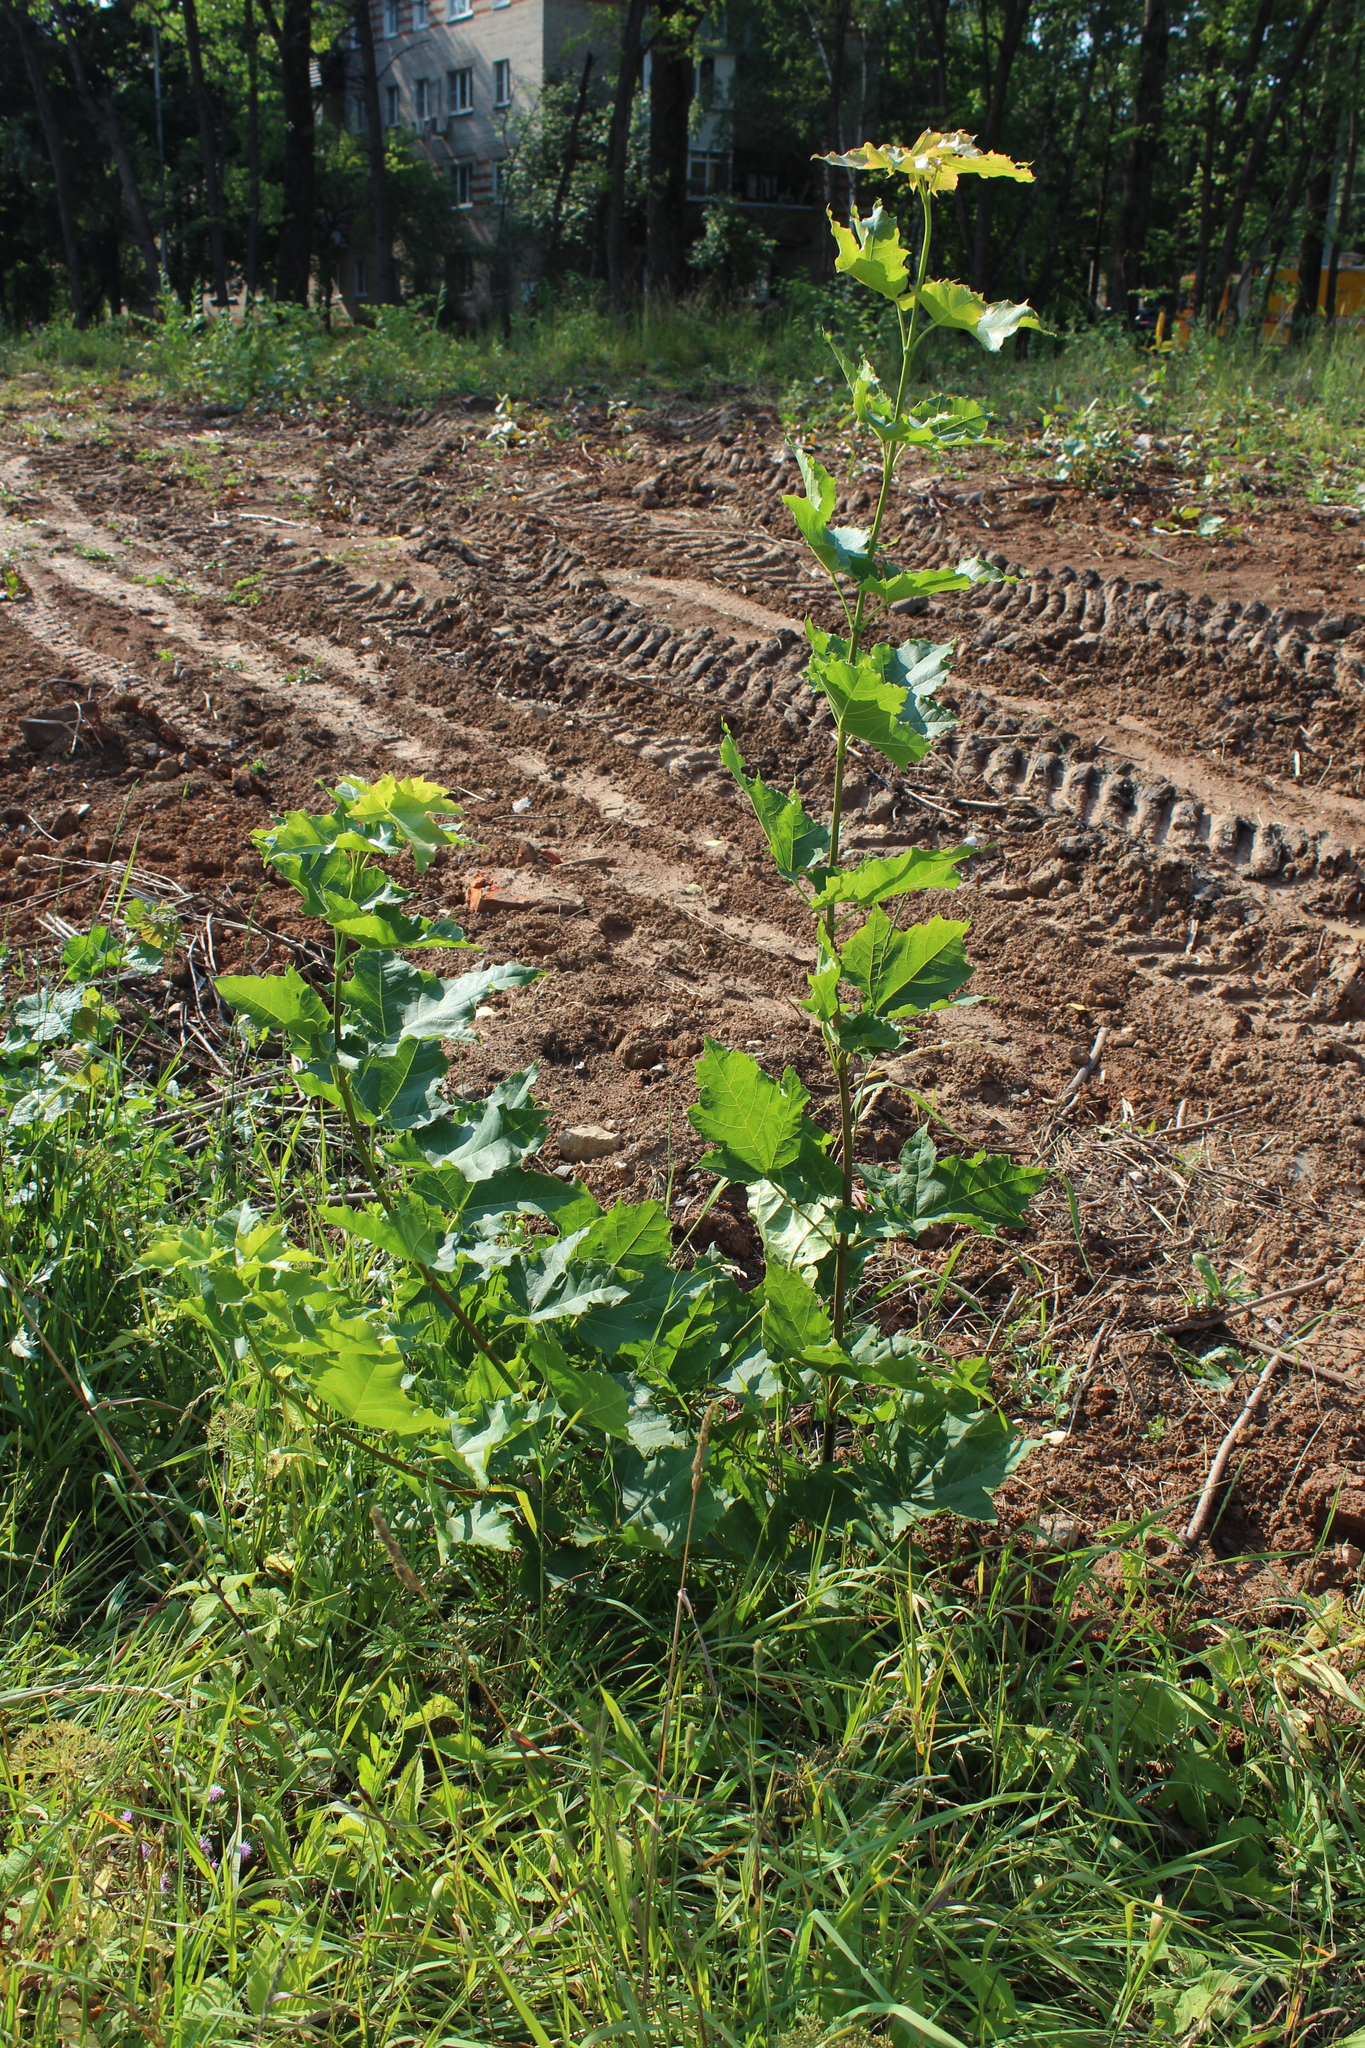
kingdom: Plantae
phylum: Tracheophyta
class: Magnoliopsida
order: Sapindales
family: Sapindaceae
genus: Acer
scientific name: Acer platanoides
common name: Norway maple
